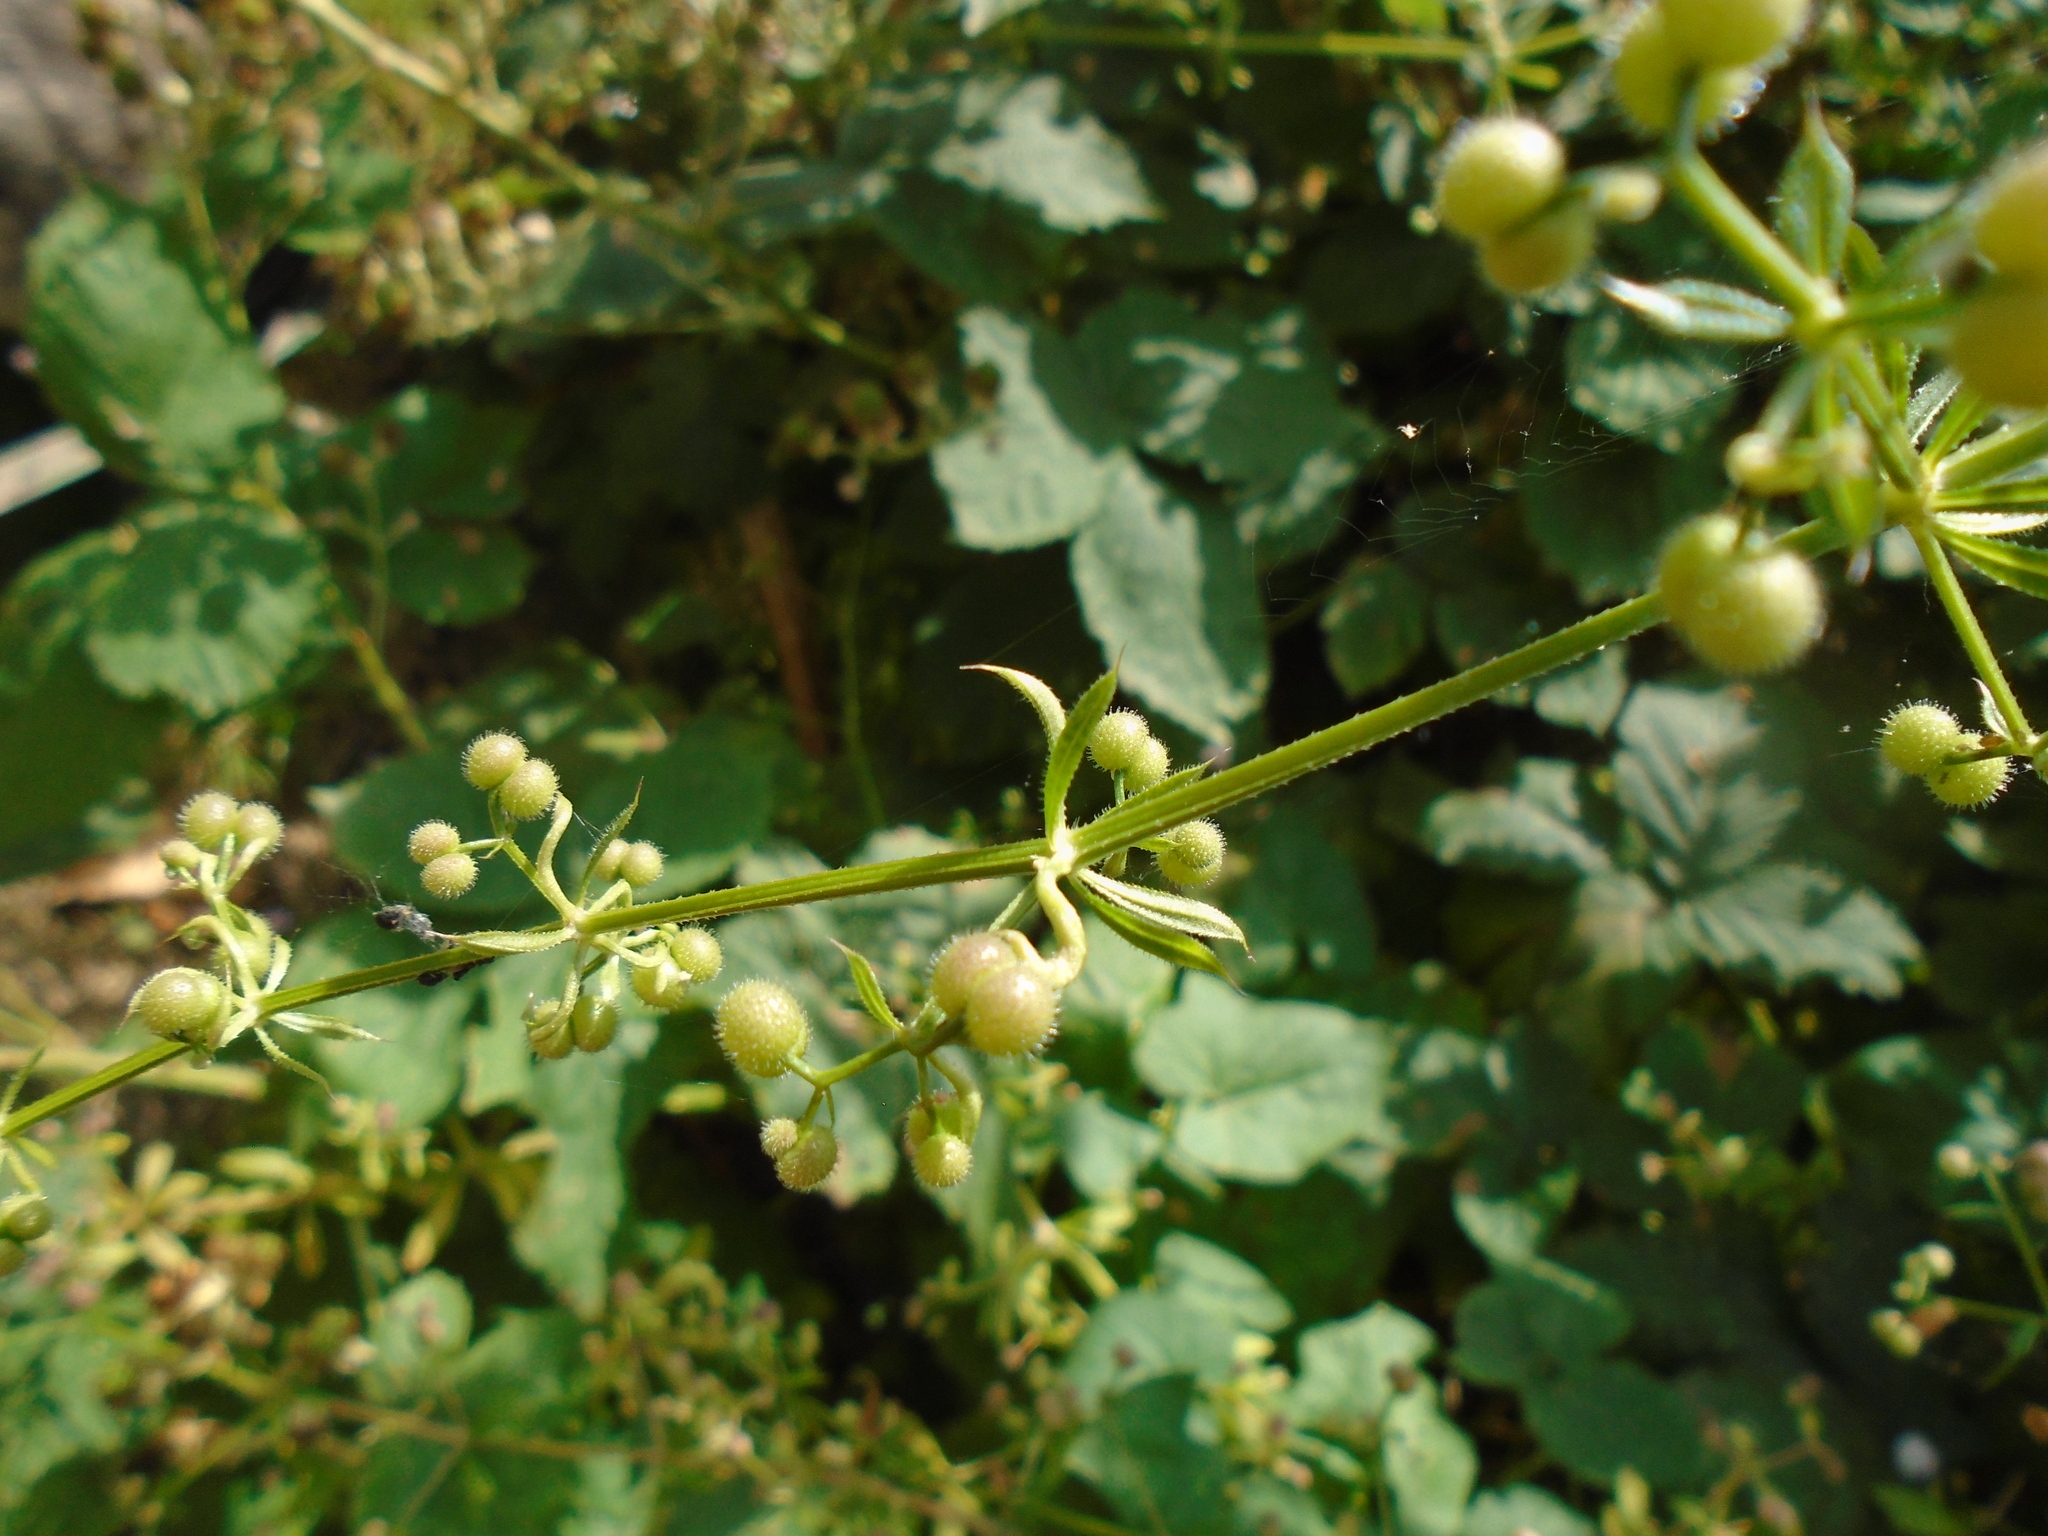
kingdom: Plantae
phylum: Tracheophyta
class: Magnoliopsida
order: Gentianales
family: Rubiaceae
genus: Galium
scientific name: Galium aparine
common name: Cleavers
